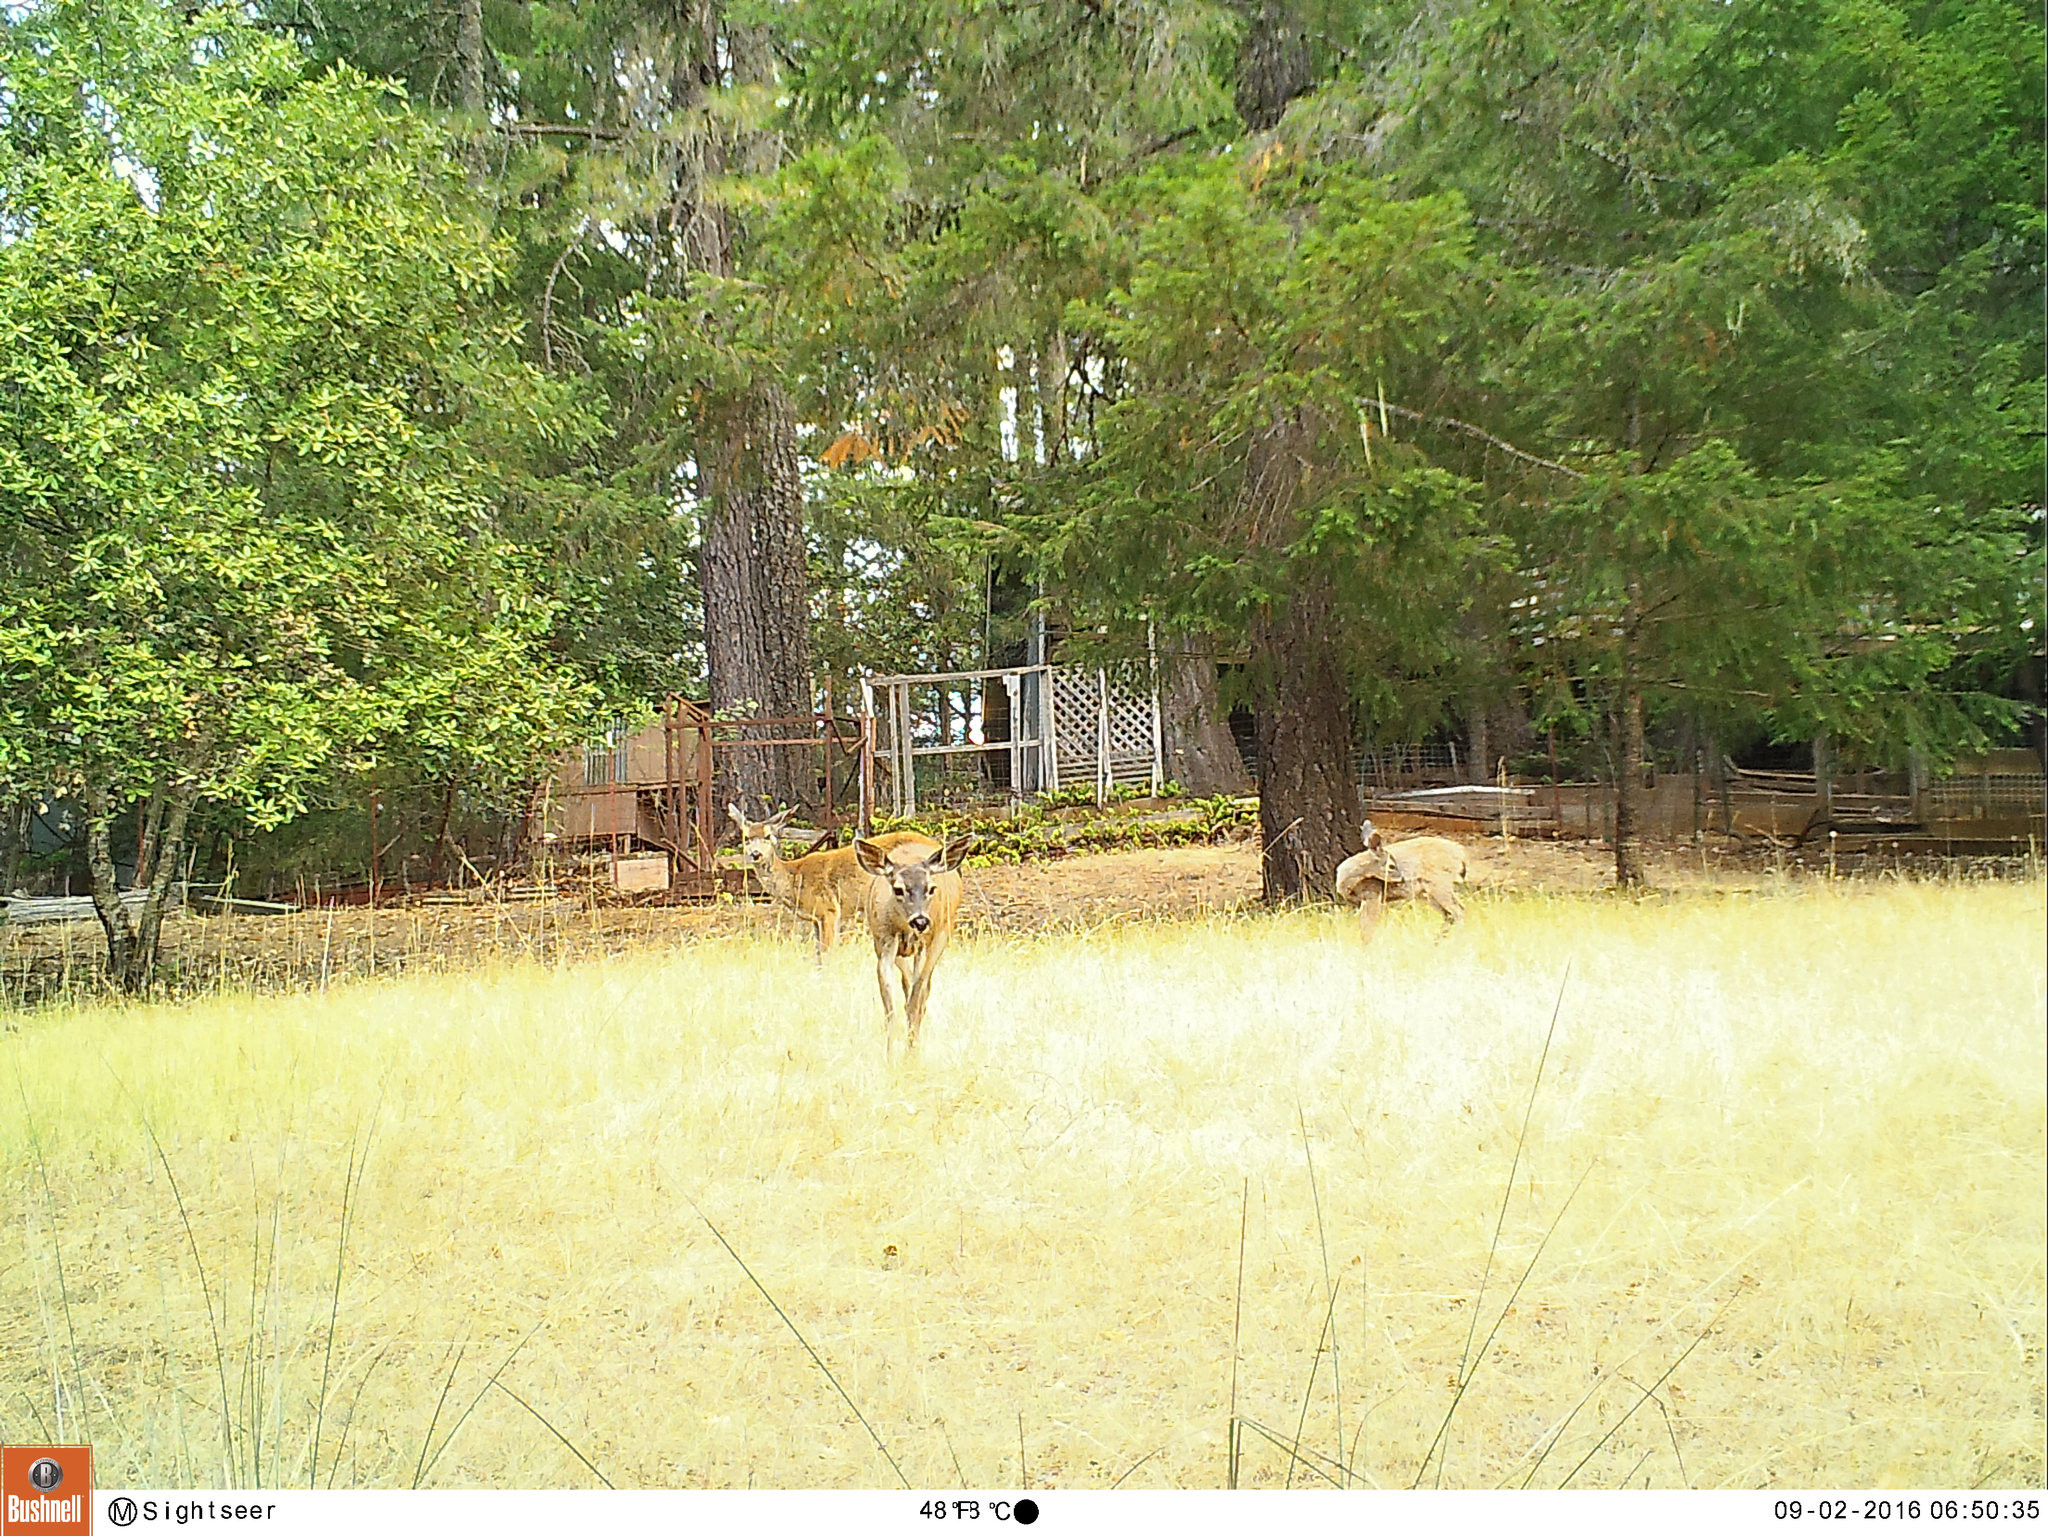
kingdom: Animalia
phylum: Chordata
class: Mammalia
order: Artiodactyla
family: Cervidae
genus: Odocoileus
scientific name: Odocoileus hemionus
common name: Mule deer
